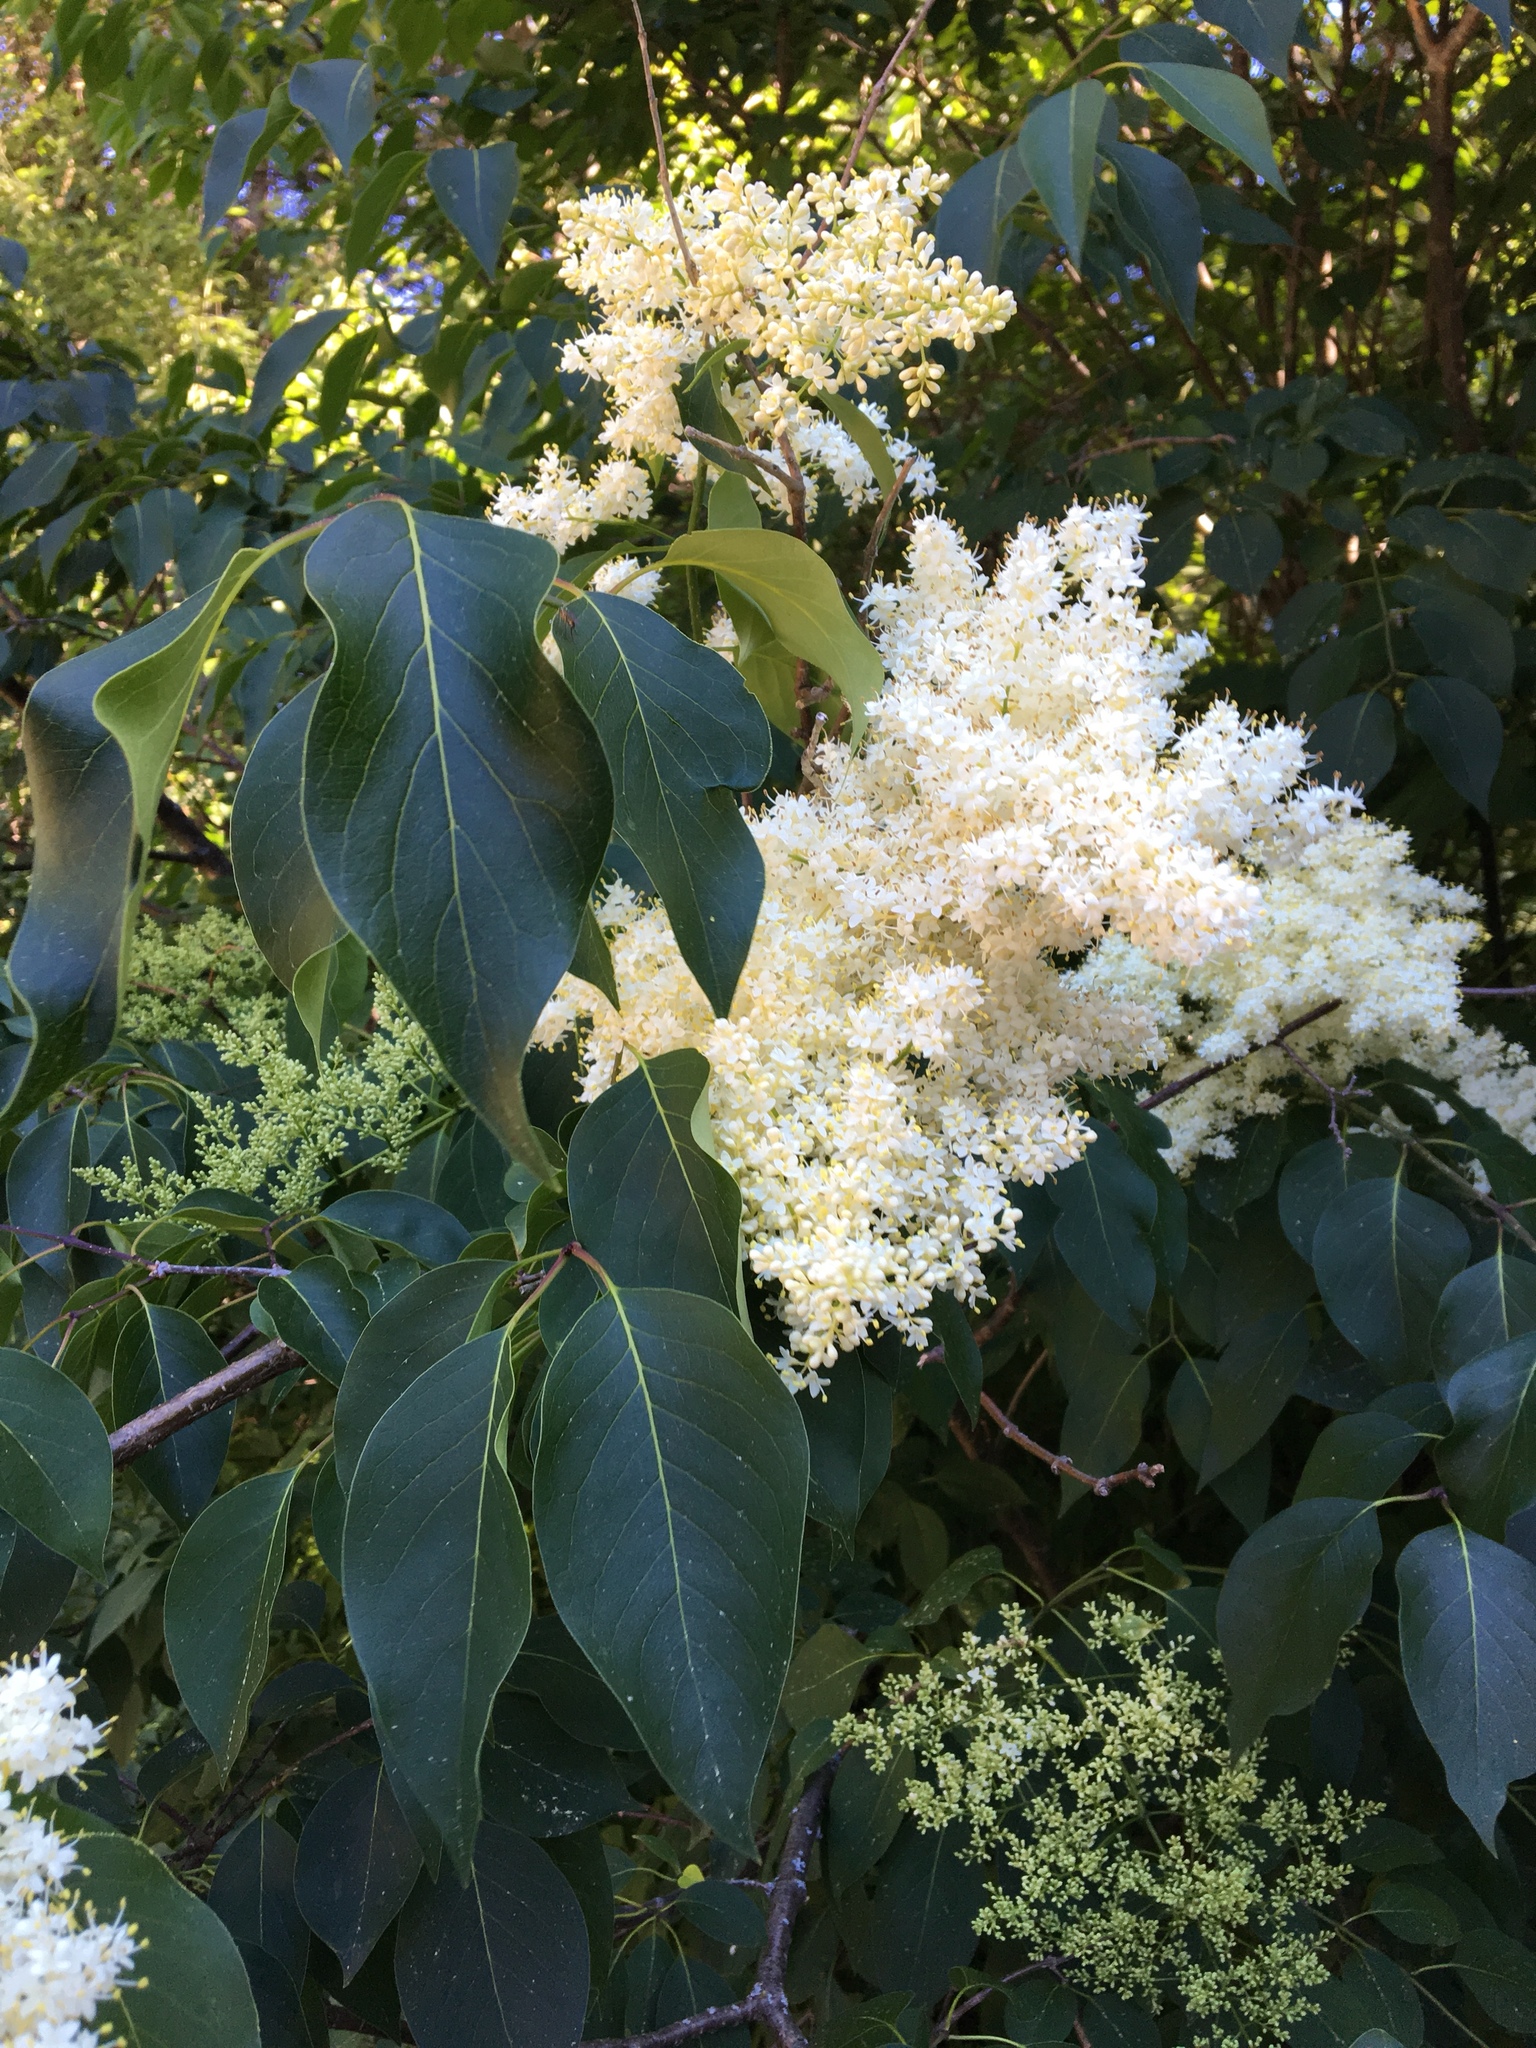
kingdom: Plantae
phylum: Tracheophyta
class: Magnoliopsida
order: Lamiales
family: Oleaceae
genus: Syringa
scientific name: Syringa reticulata
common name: Japanese tree lilac
